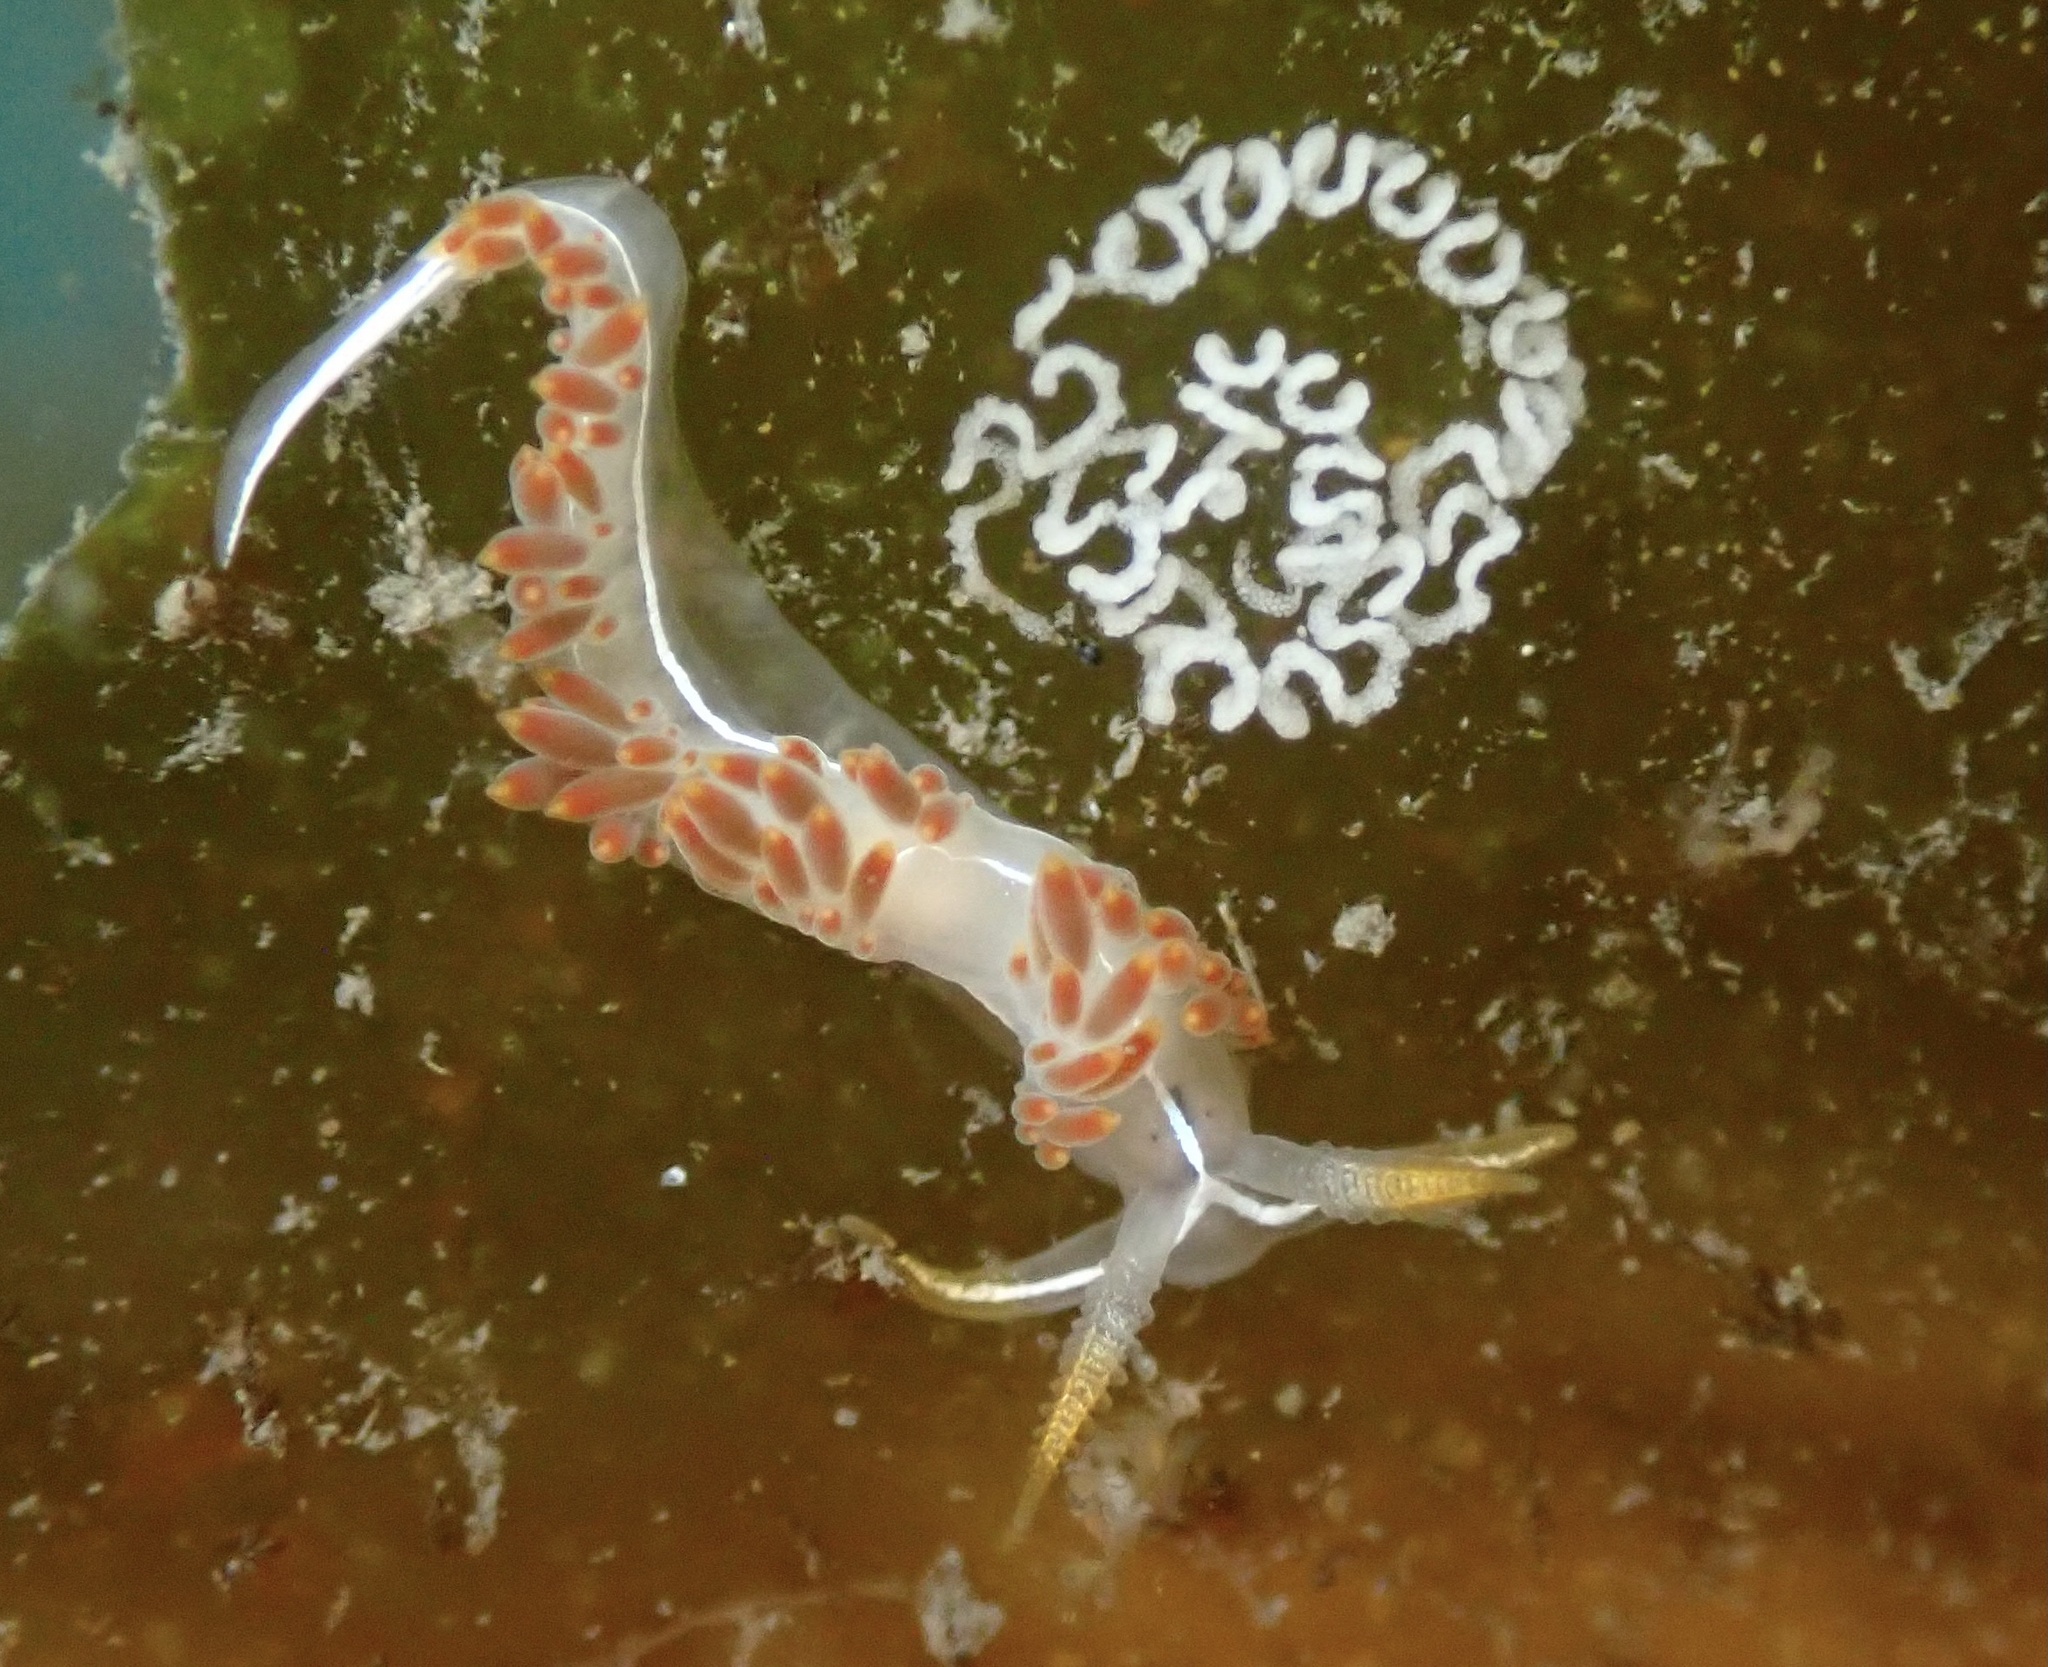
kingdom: Animalia
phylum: Mollusca
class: Gastropoda
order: Nudibranchia
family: Coryphellidae
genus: Coryphella
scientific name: Coryphella trilineata
